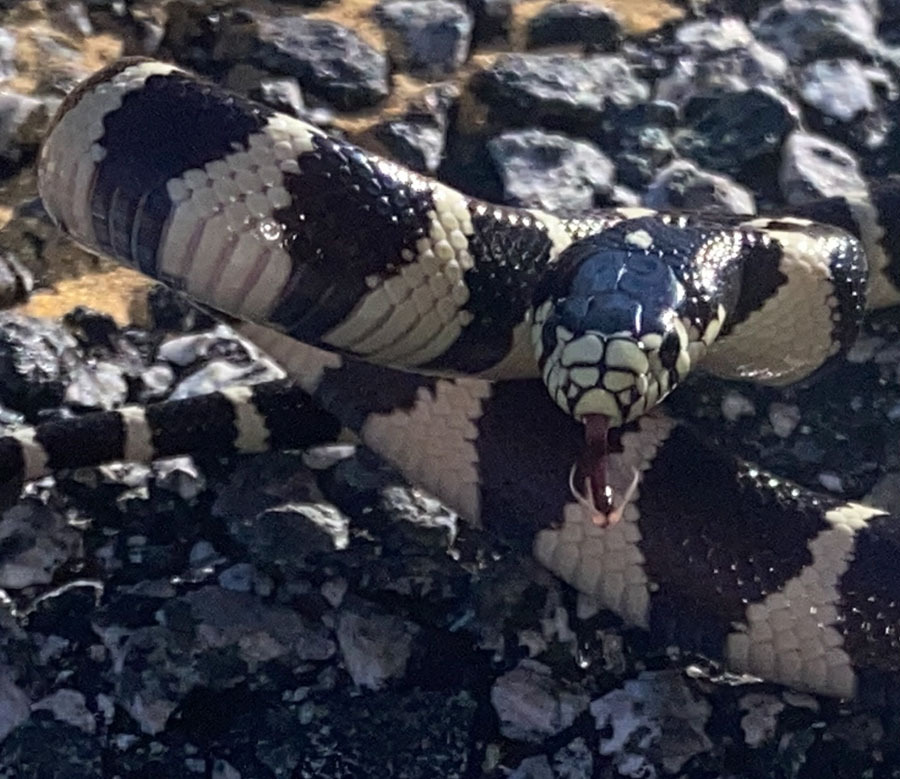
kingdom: Animalia
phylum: Chordata
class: Squamata
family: Colubridae
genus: Lampropeltis
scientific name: Lampropeltis californiae
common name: California kingsnake
